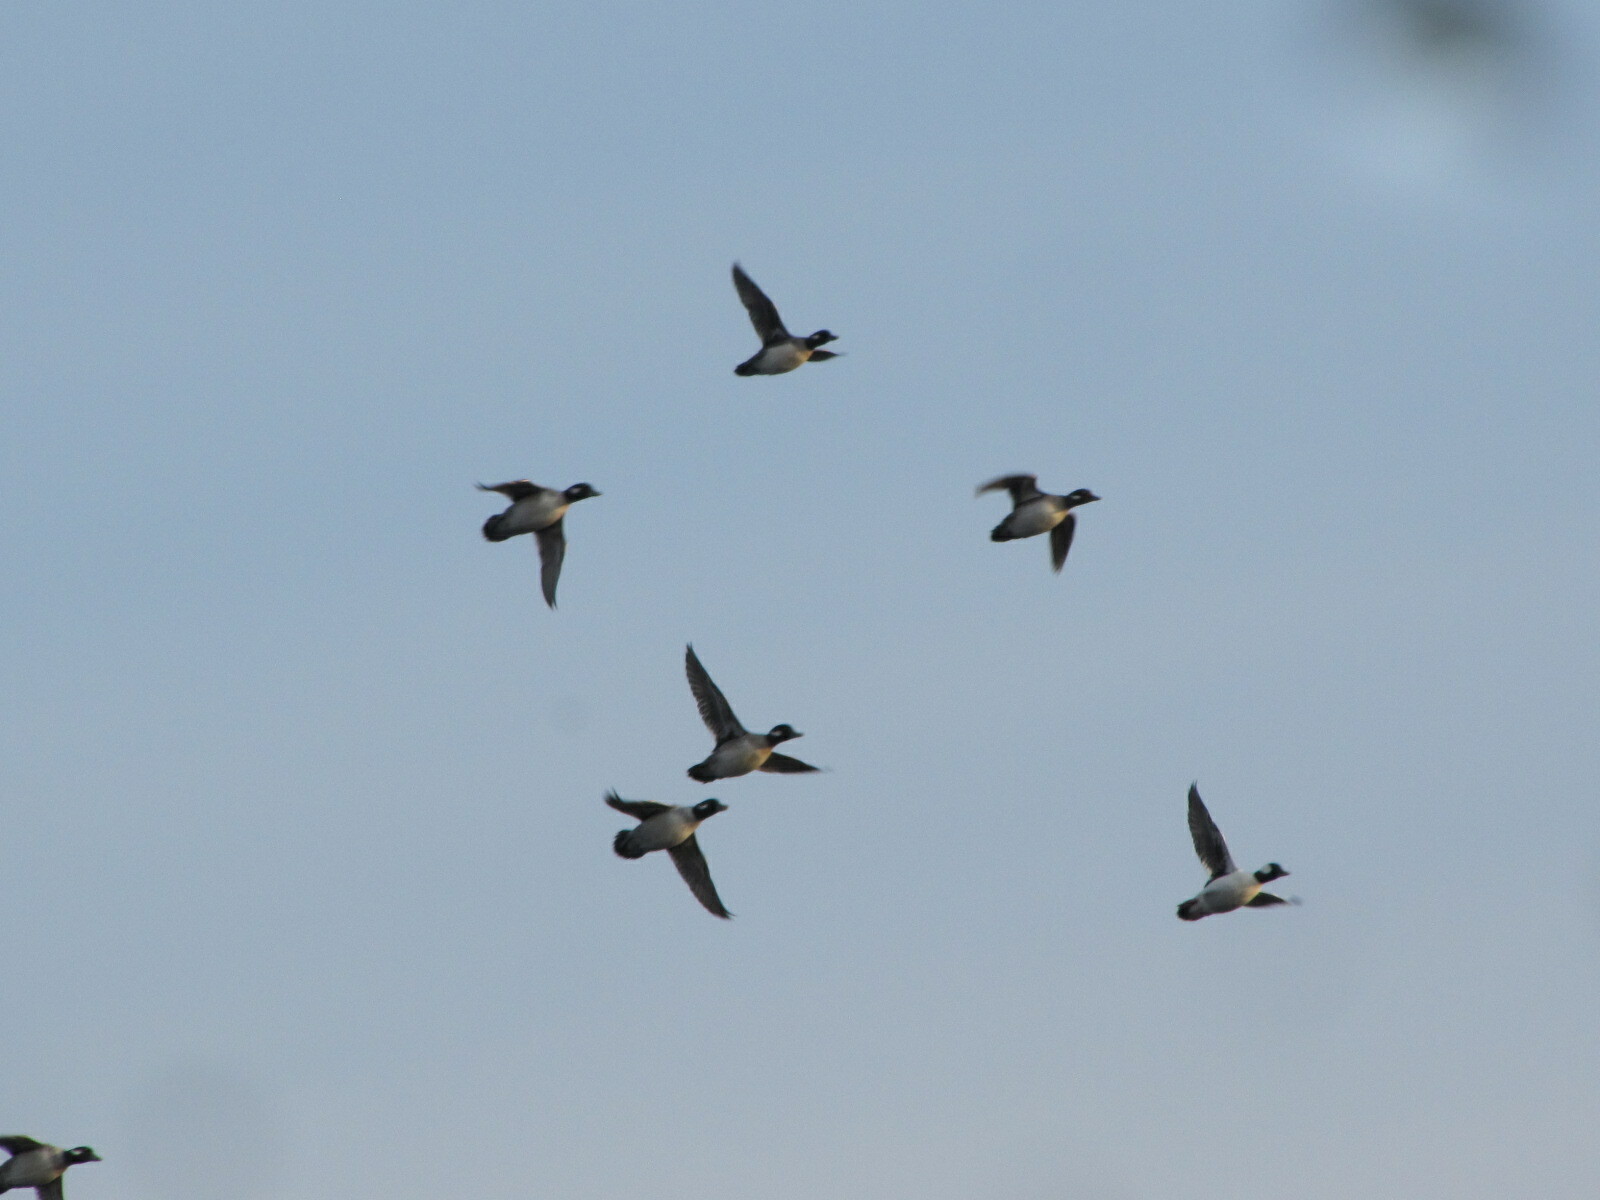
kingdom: Animalia
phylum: Chordata
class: Aves
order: Anseriformes
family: Anatidae
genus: Bucephala
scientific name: Bucephala albeola
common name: Bufflehead
